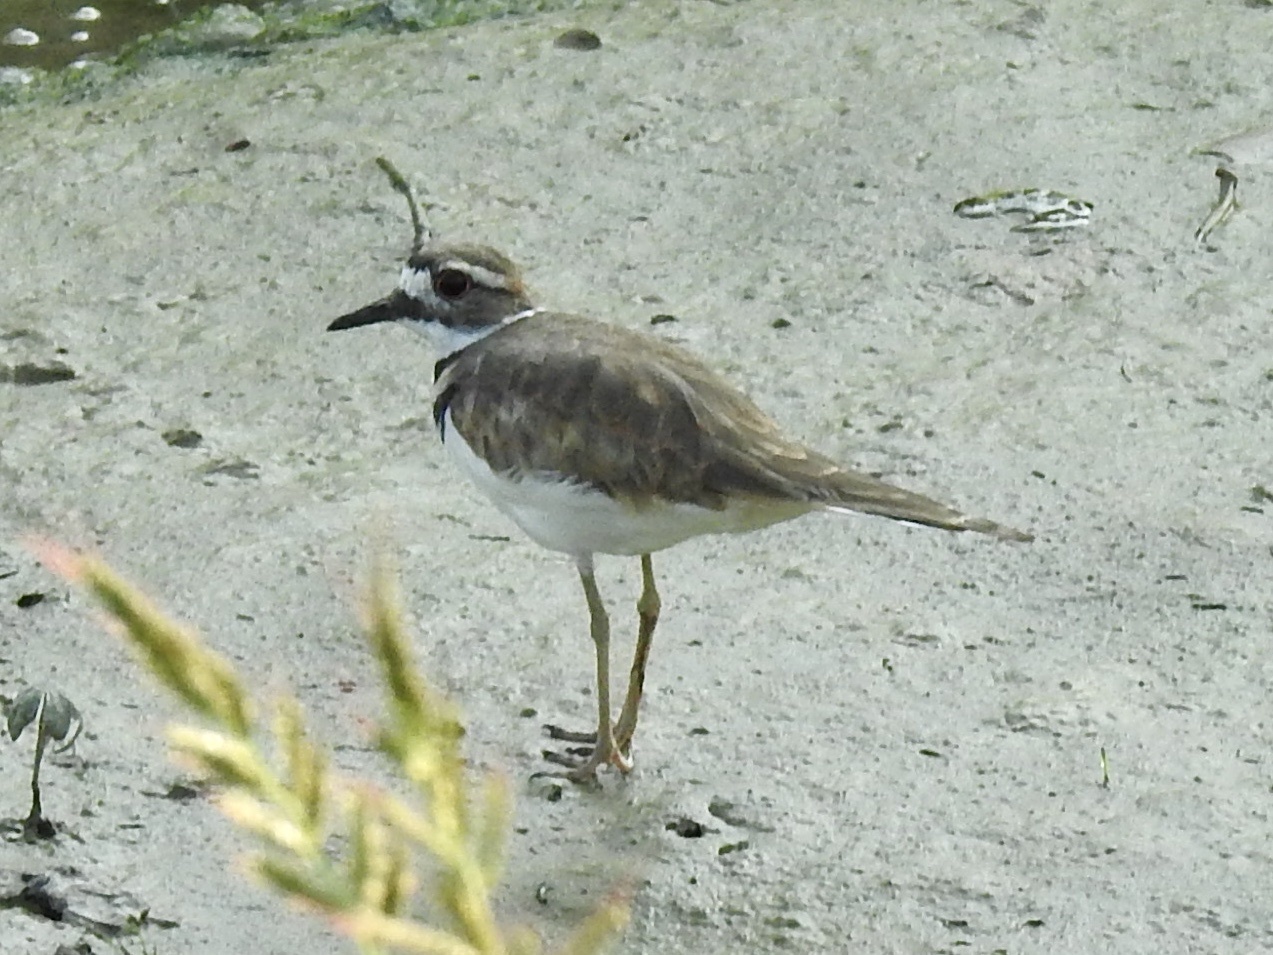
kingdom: Animalia
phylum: Chordata
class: Aves
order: Charadriiformes
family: Charadriidae
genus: Charadrius
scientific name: Charadrius vociferus
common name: Killdeer
